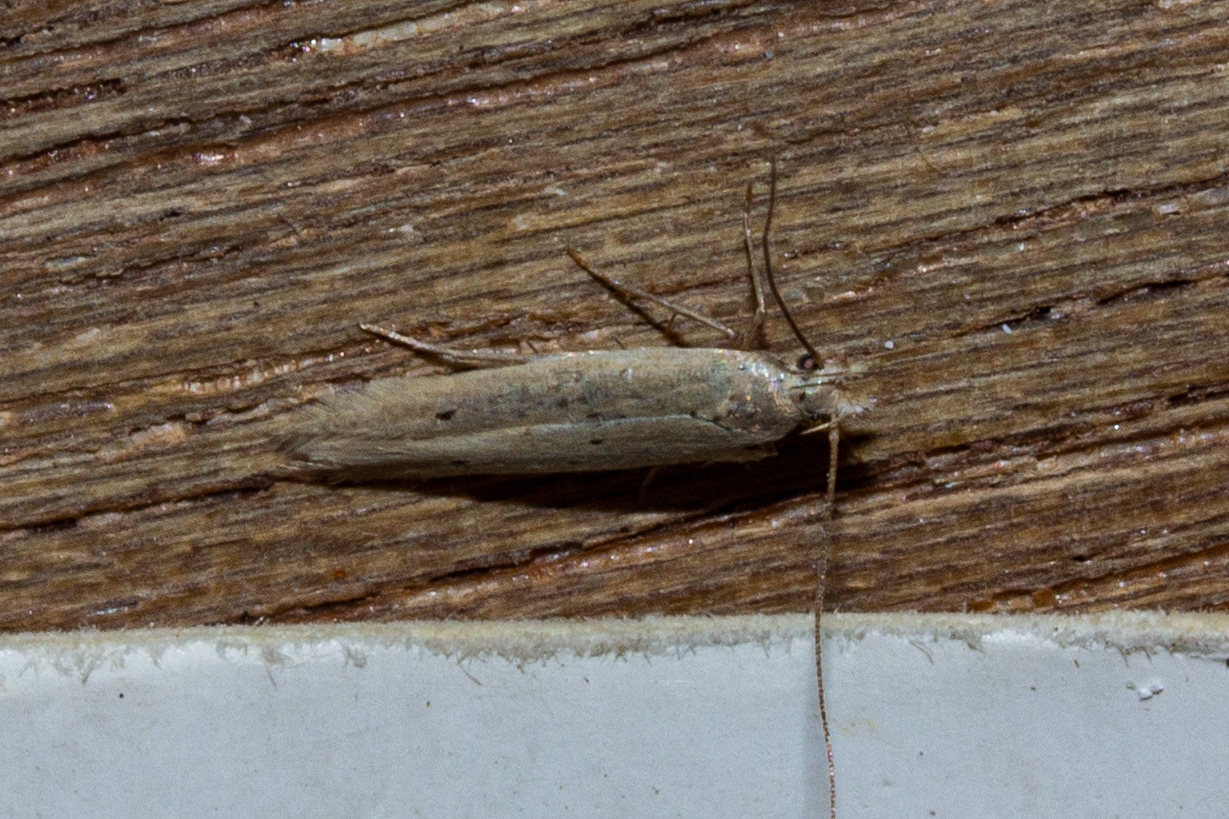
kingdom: Animalia
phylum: Arthropoda
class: Insecta
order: Lepidoptera
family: Gelechiidae
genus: Epiphthora
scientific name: Epiphthora calamogonus
